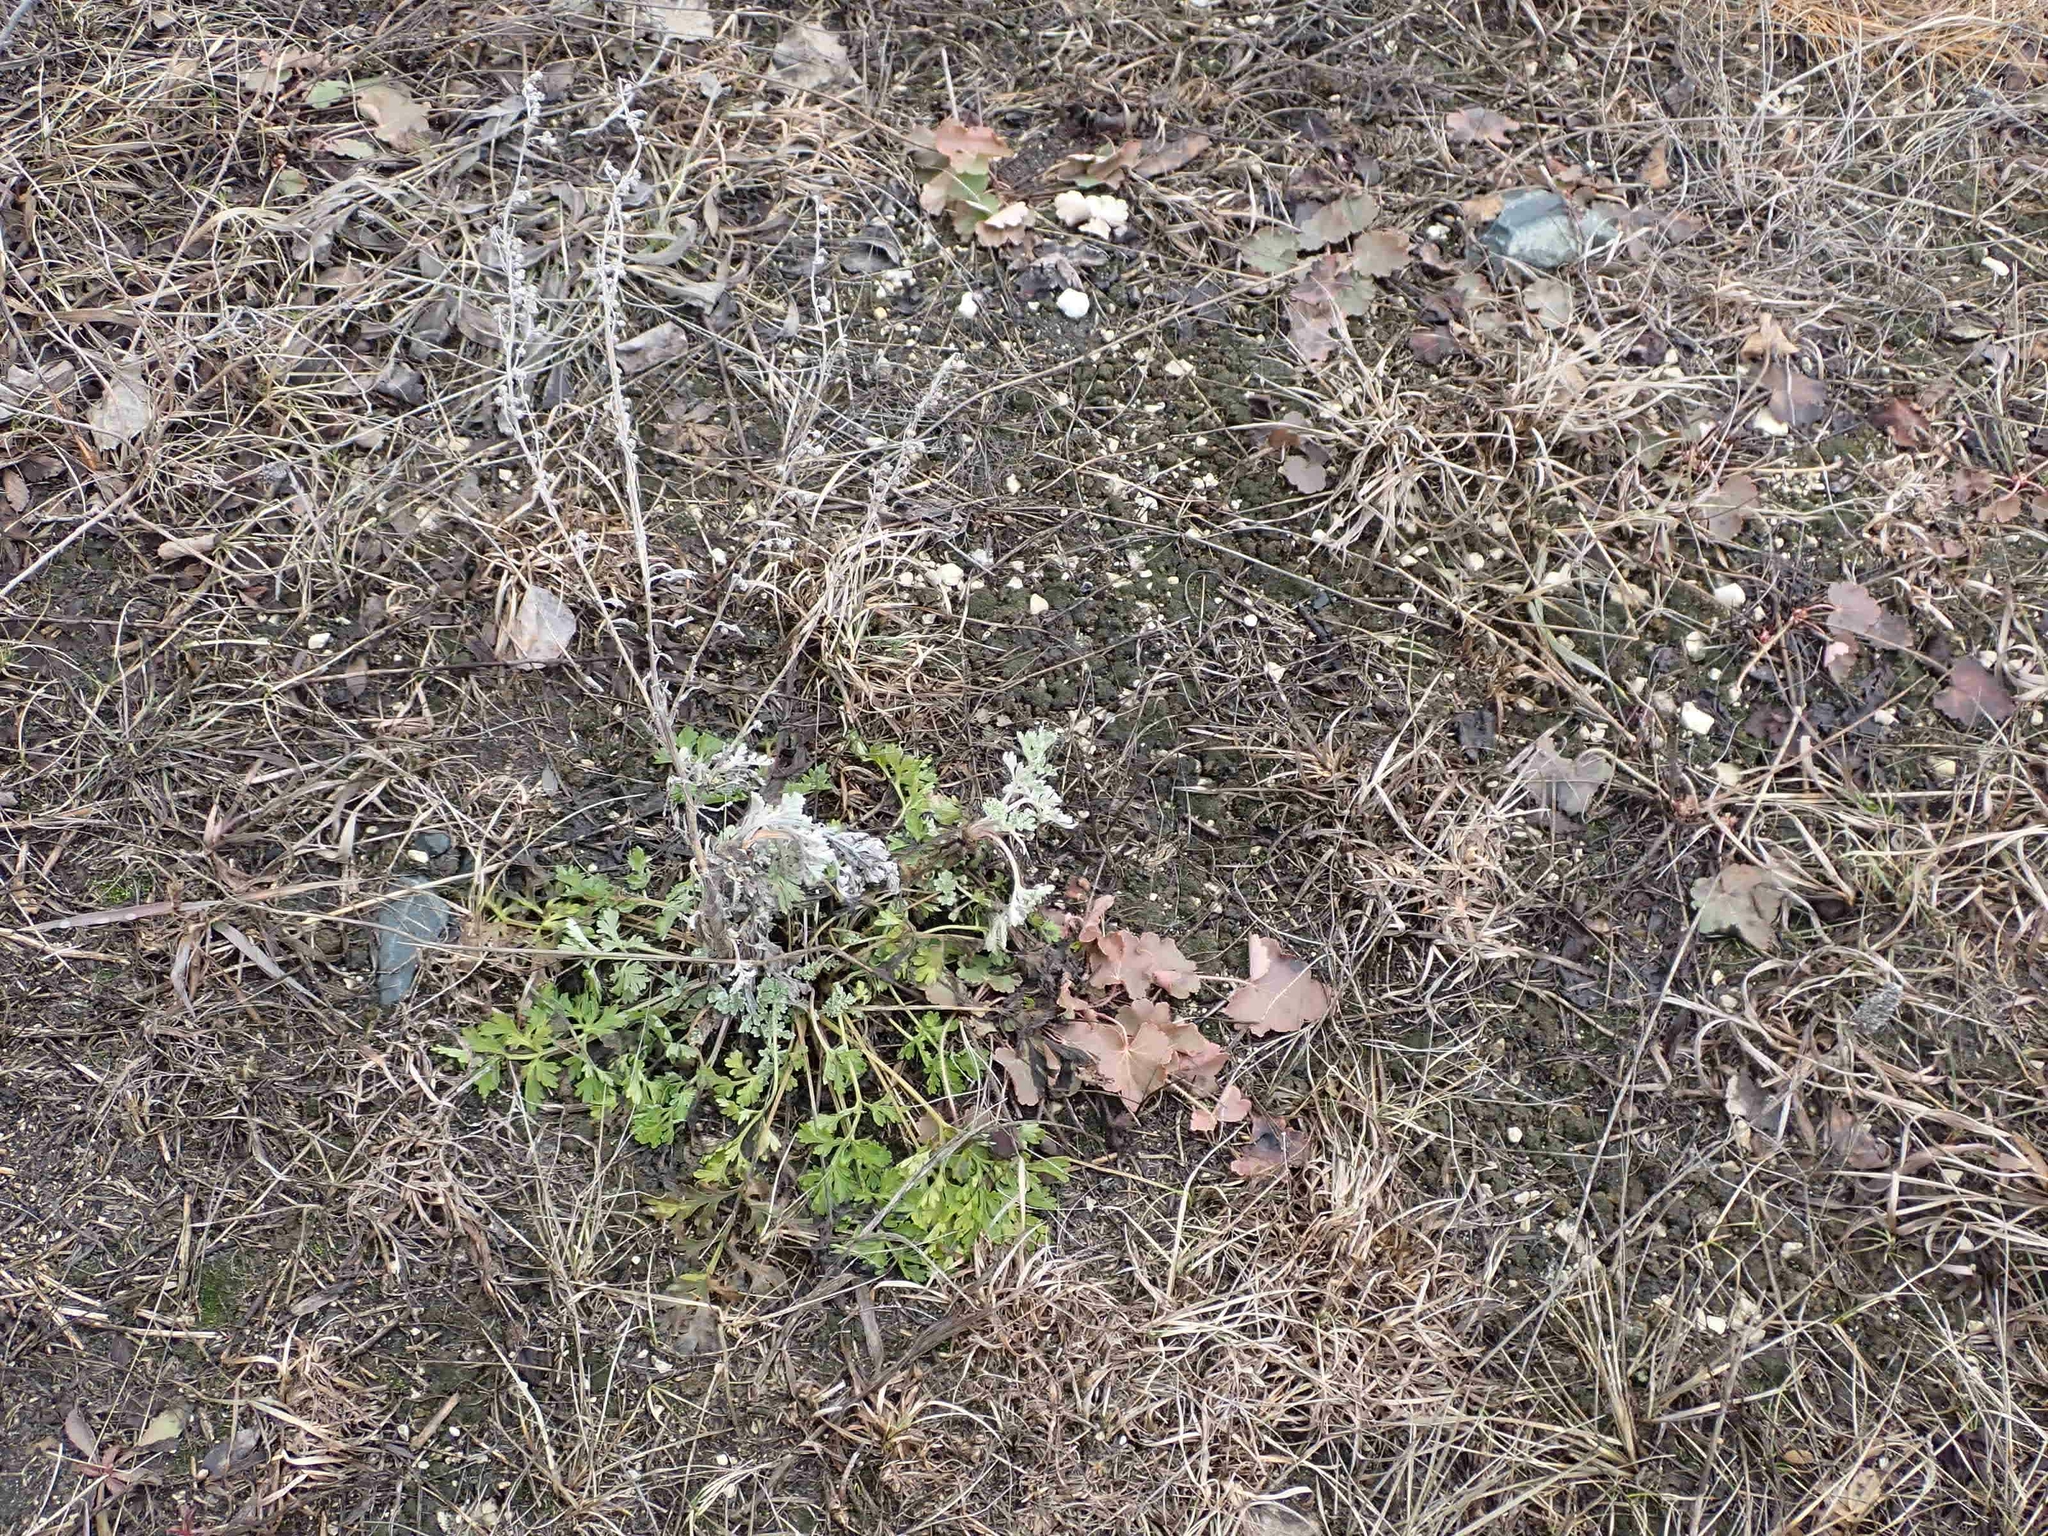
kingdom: Plantae
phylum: Tracheophyta
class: Magnoliopsida
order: Asterales
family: Asteraceae
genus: Artemisia
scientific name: Artemisia absinthium
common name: Wormwood
